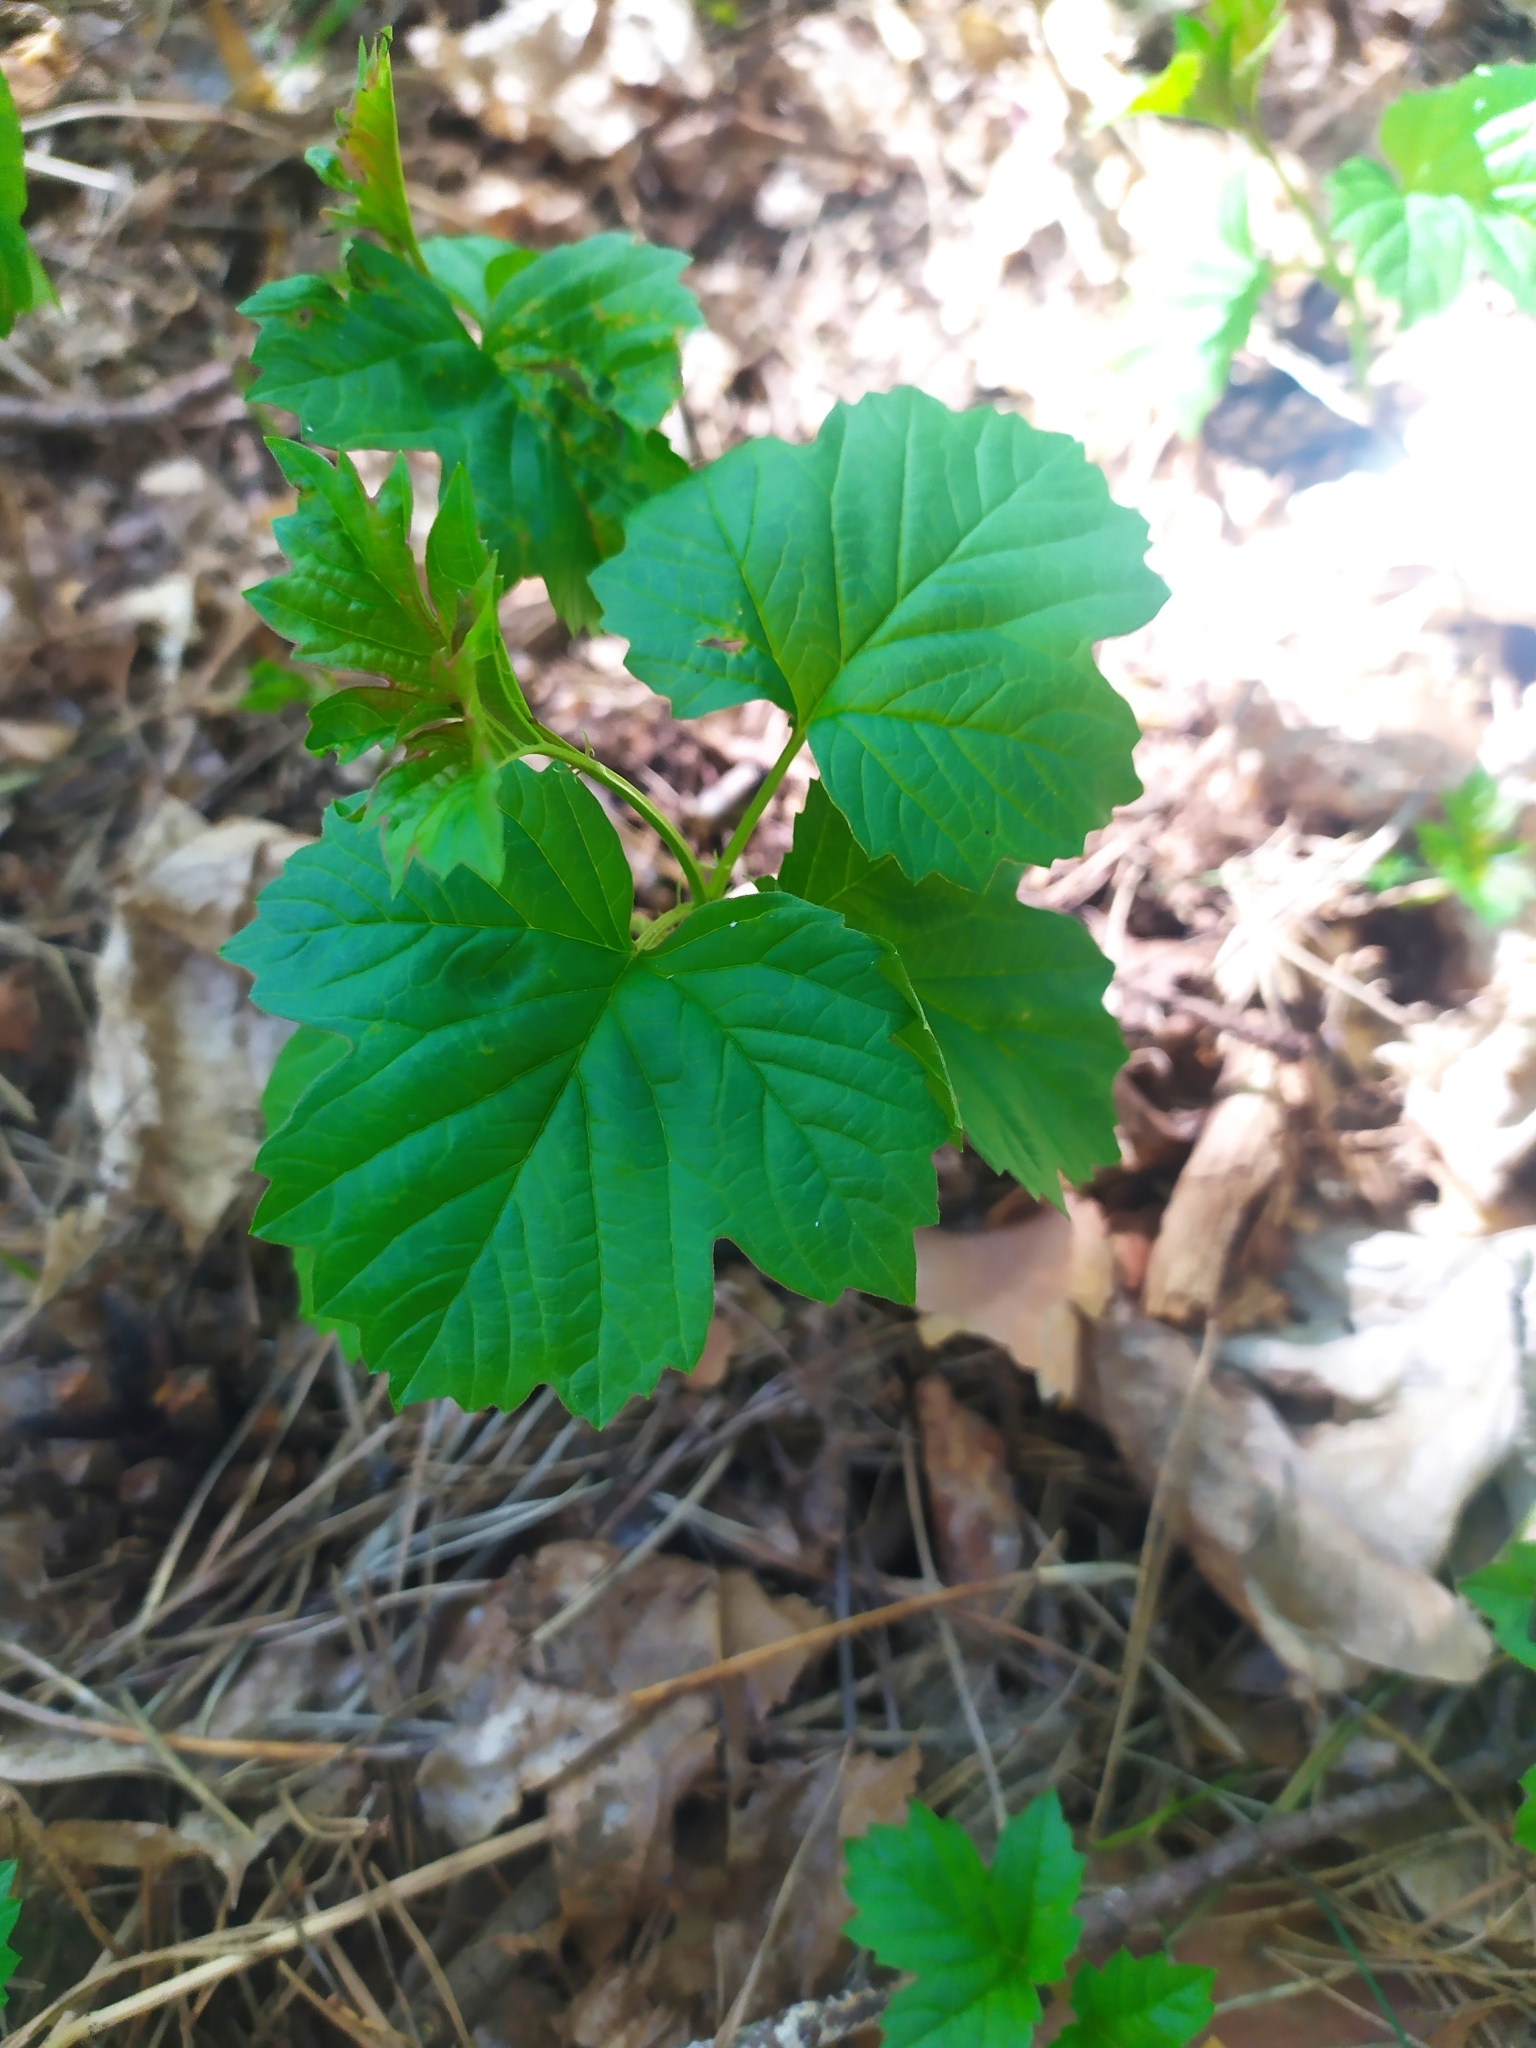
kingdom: Plantae
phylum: Tracheophyta
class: Magnoliopsida
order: Dipsacales
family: Viburnaceae
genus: Viburnum
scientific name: Viburnum opulus
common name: Guelder-rose
